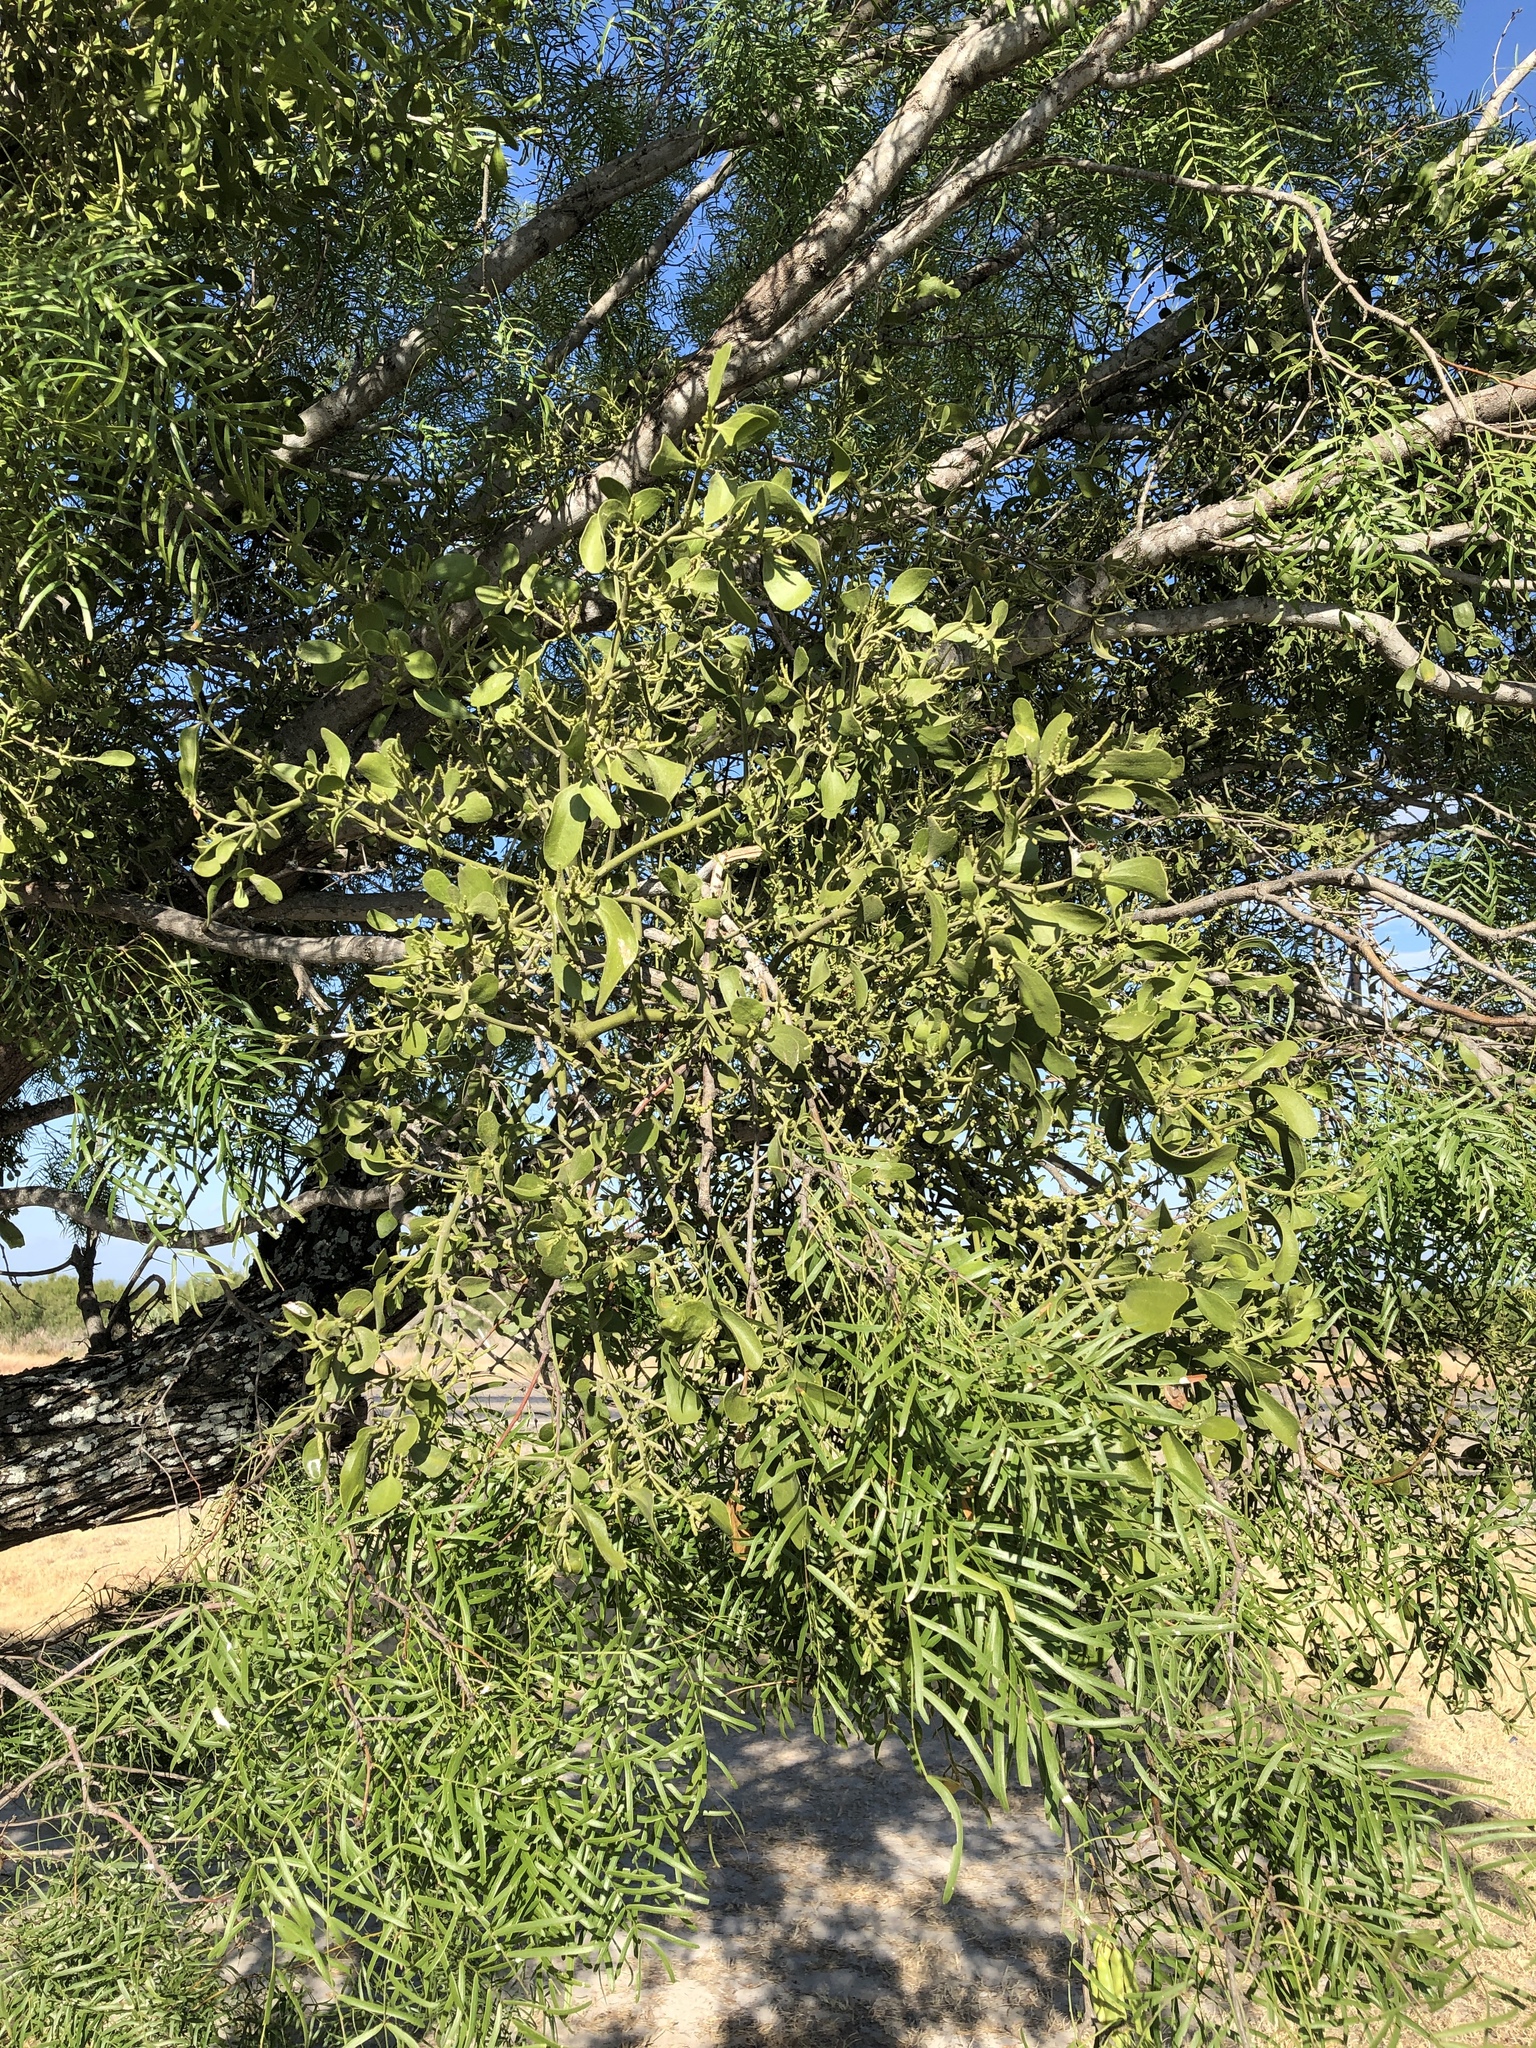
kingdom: Plantae
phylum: Tracheophyta
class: Magnoliopsida
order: Santalales
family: Viscaceae
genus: Phoradendron
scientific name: Phoradendron leucarpum
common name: Pacific mistletoe
